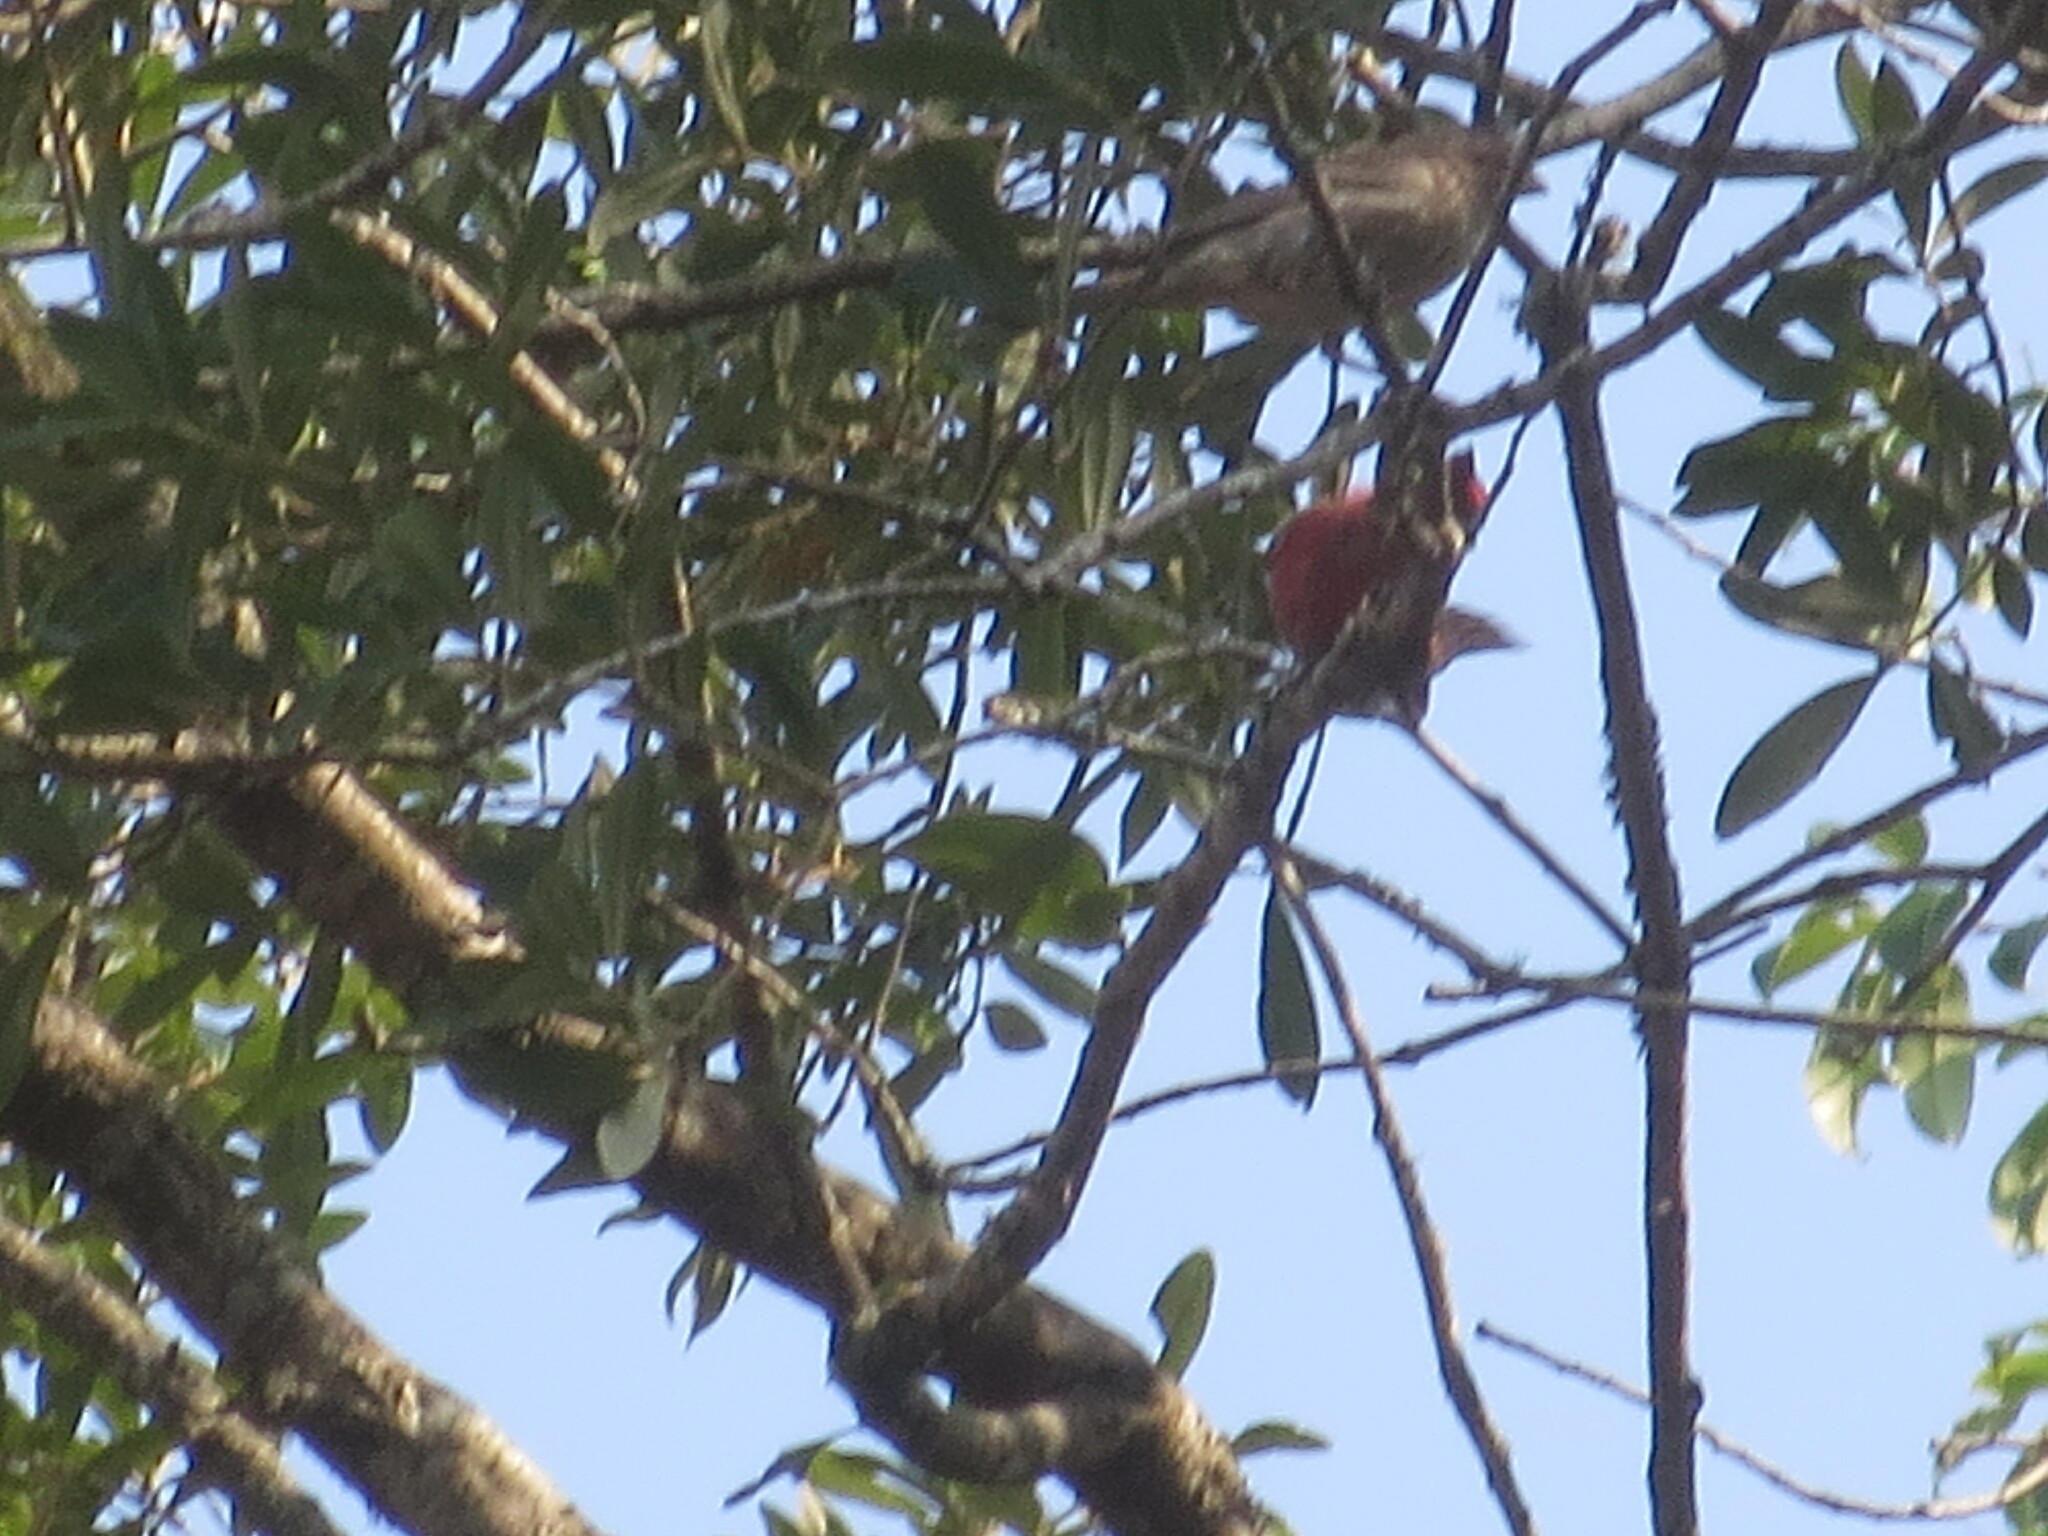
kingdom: Animalia
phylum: Chordata
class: Aves
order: Passeriformes
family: Fringillidae
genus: Haemorhous
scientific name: Haemorhous mexicanus
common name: House finch
